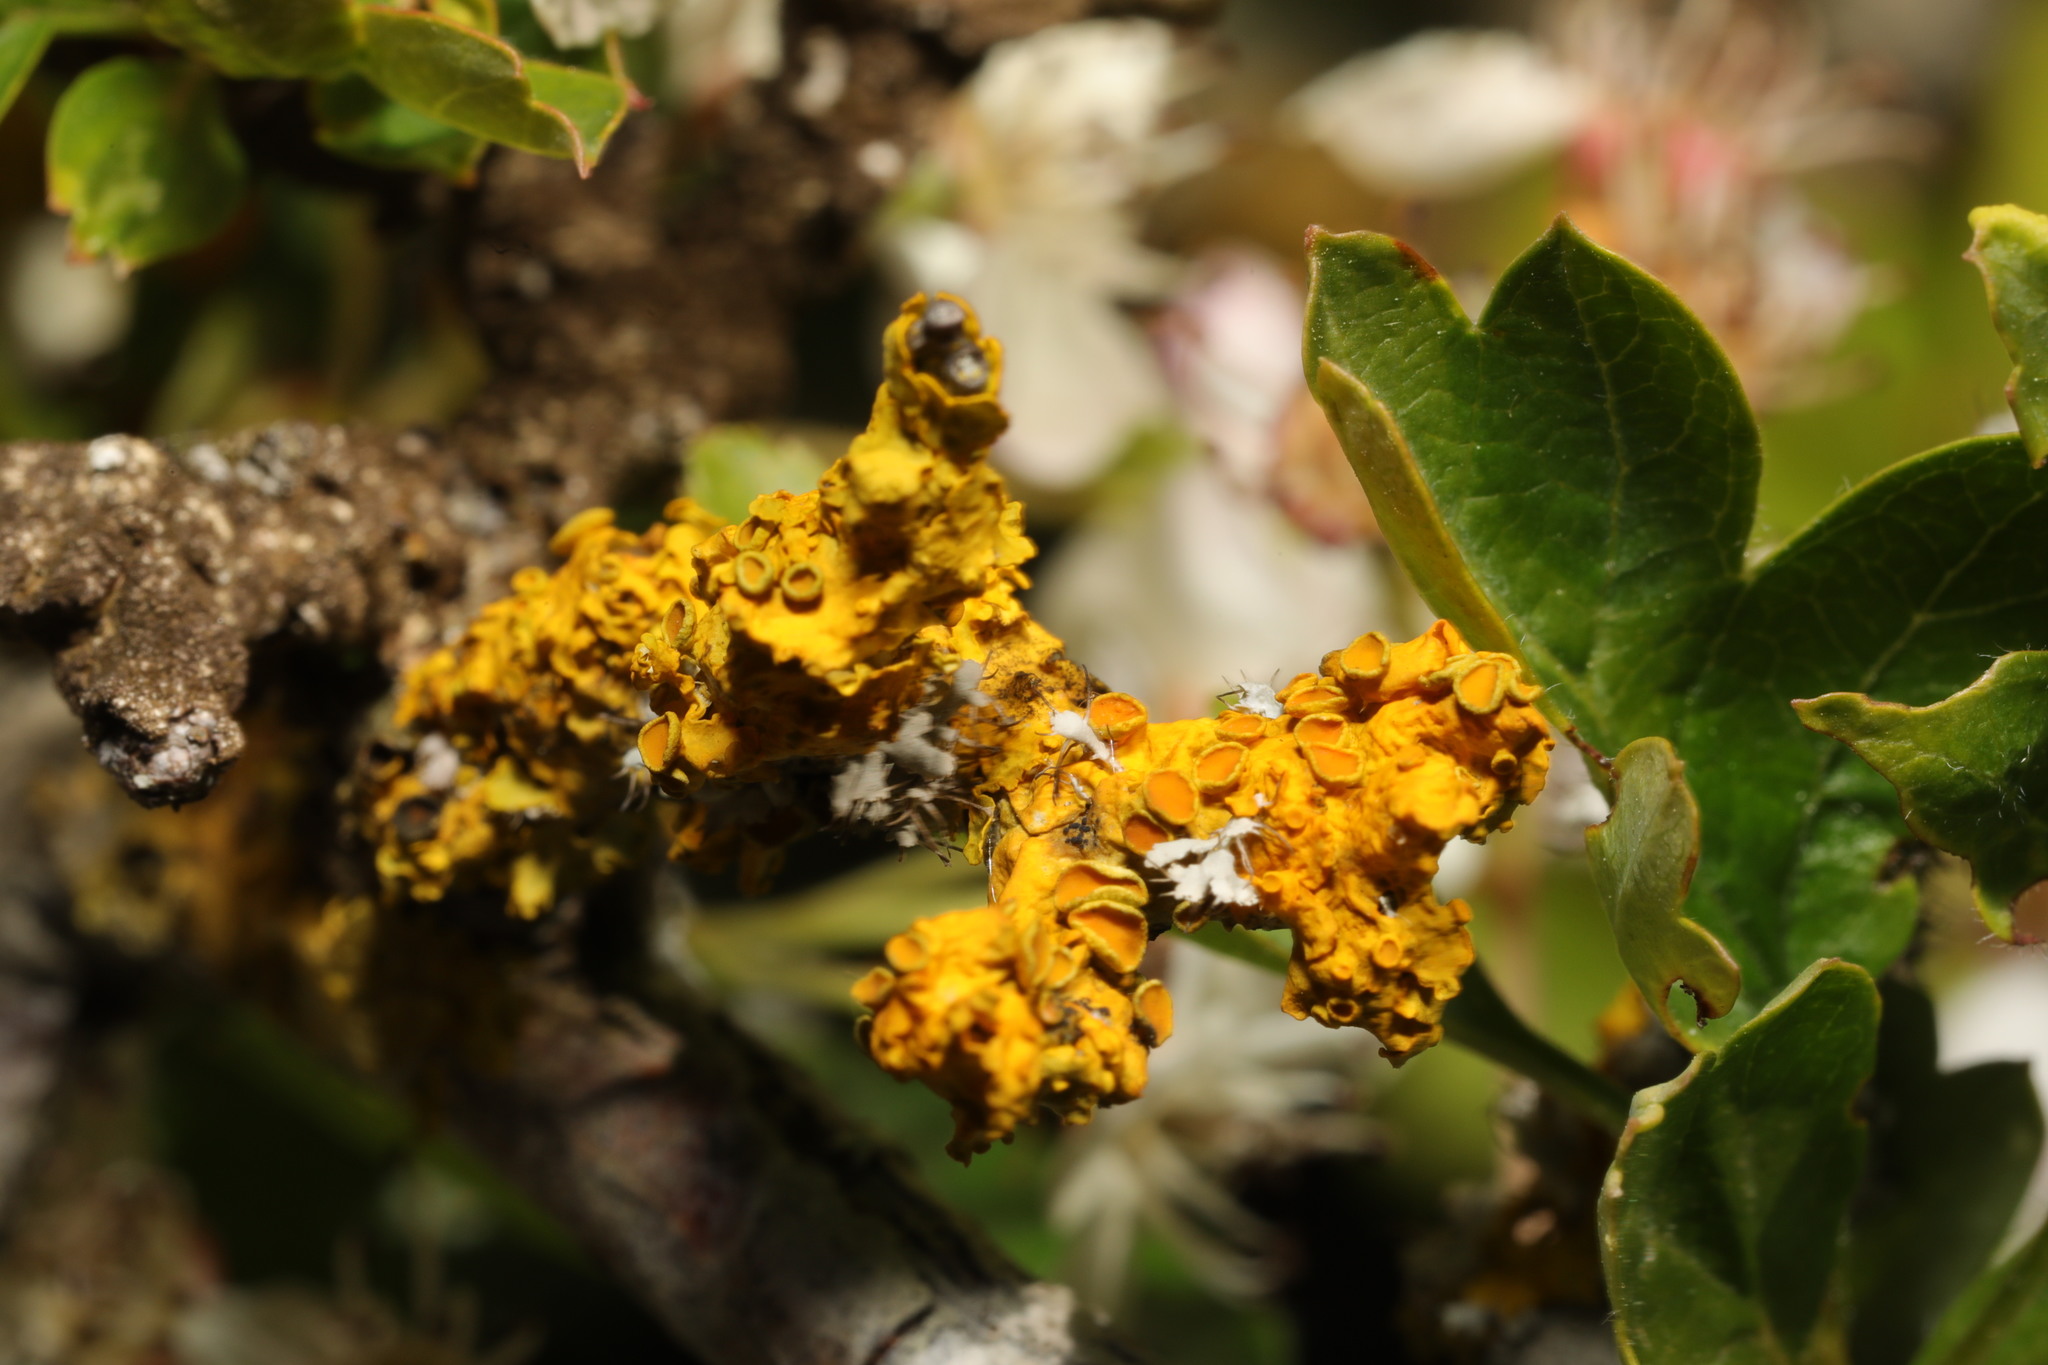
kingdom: Fungi
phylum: Ascomycota
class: Lecanoromycetes
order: Teloschistales
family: Teloschistaceae
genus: Xanthoria
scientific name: Xanthoria parietina
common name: Common orange lichen
